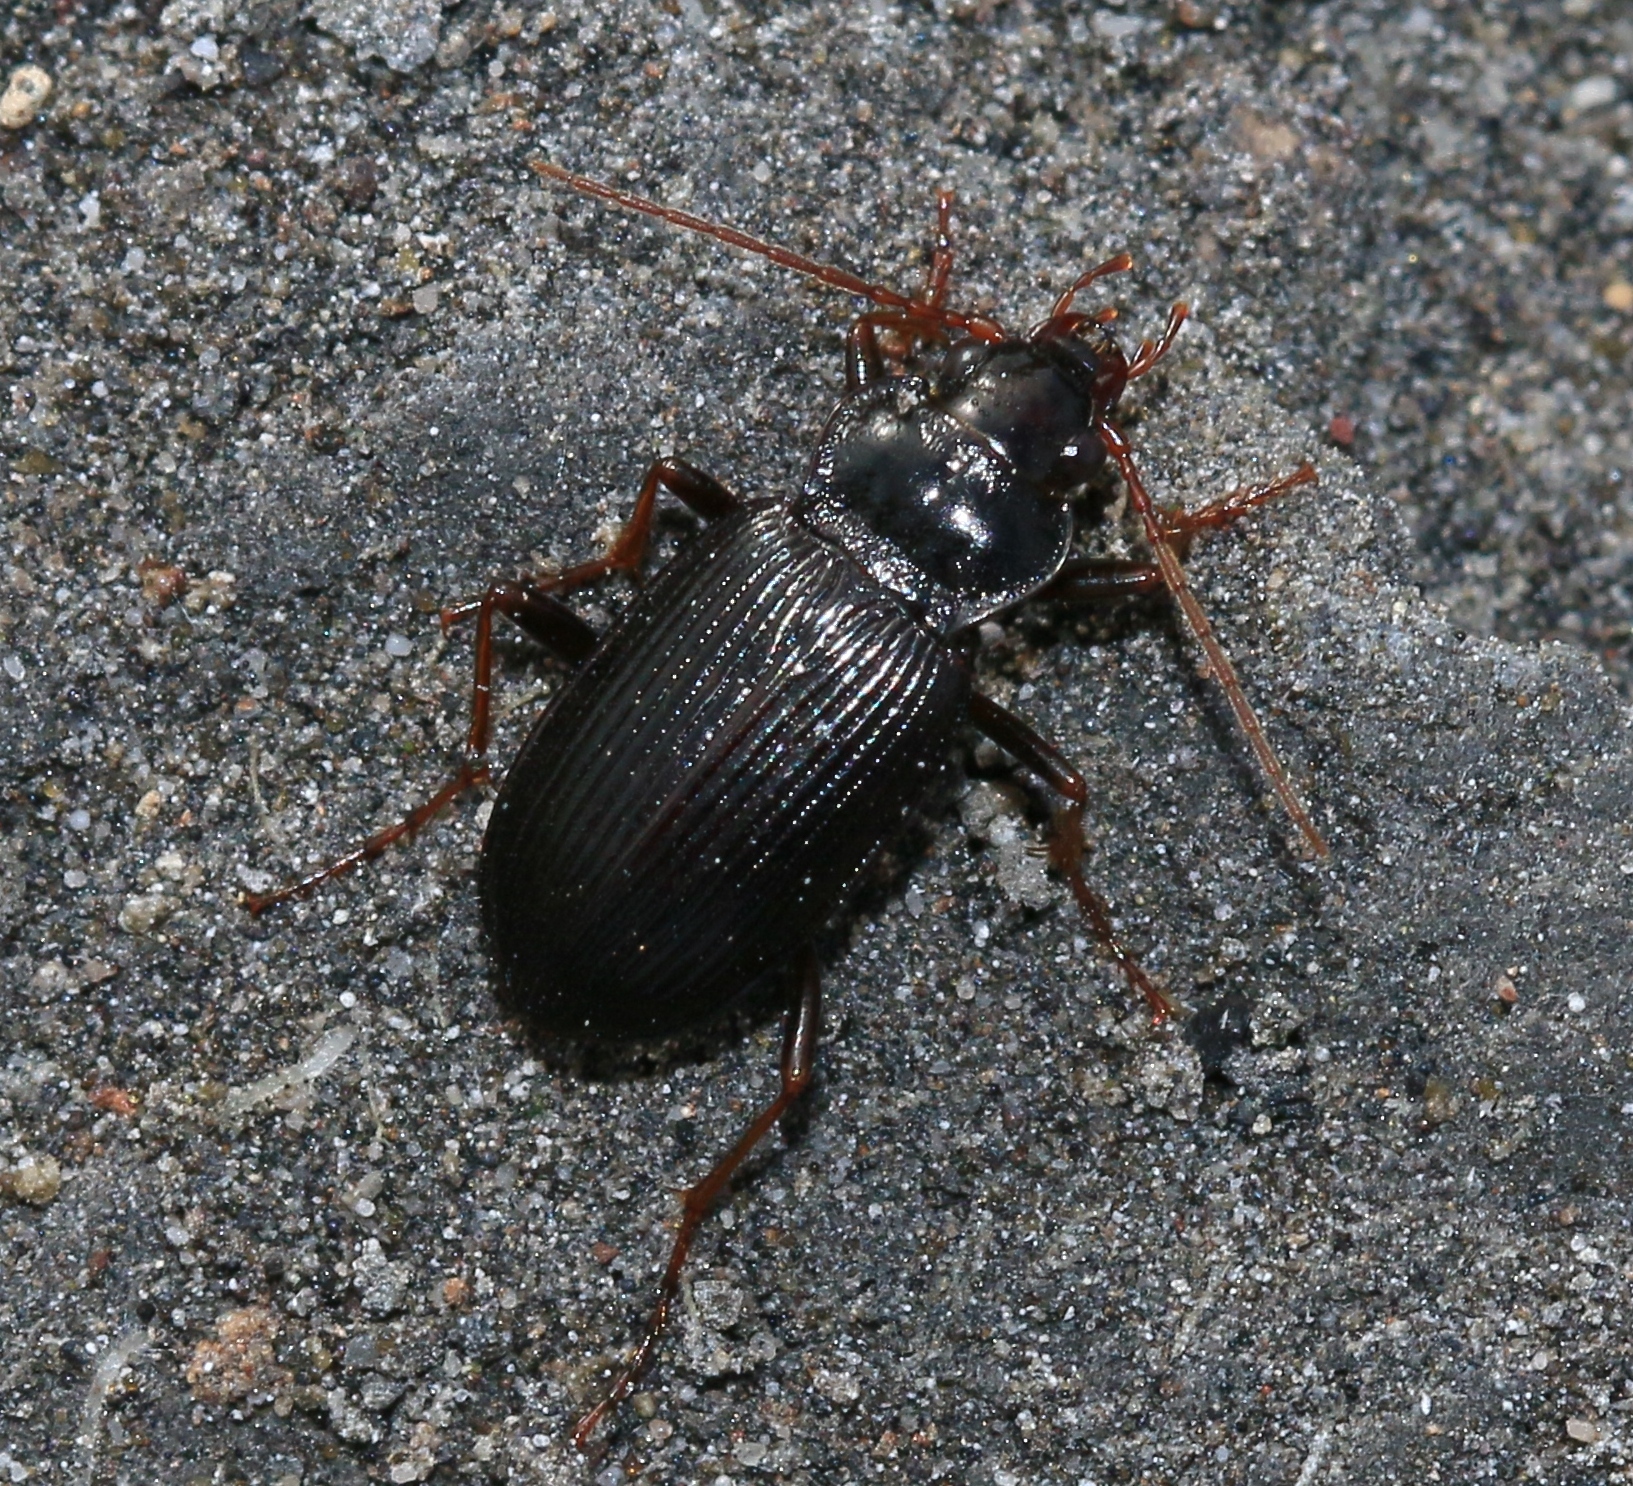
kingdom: Animalia
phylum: Arthropoda
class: Insecta
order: Coleoptera
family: Carabidae
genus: Nebria
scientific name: Nebria brevicollis
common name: Short-necked gazelle beetle
